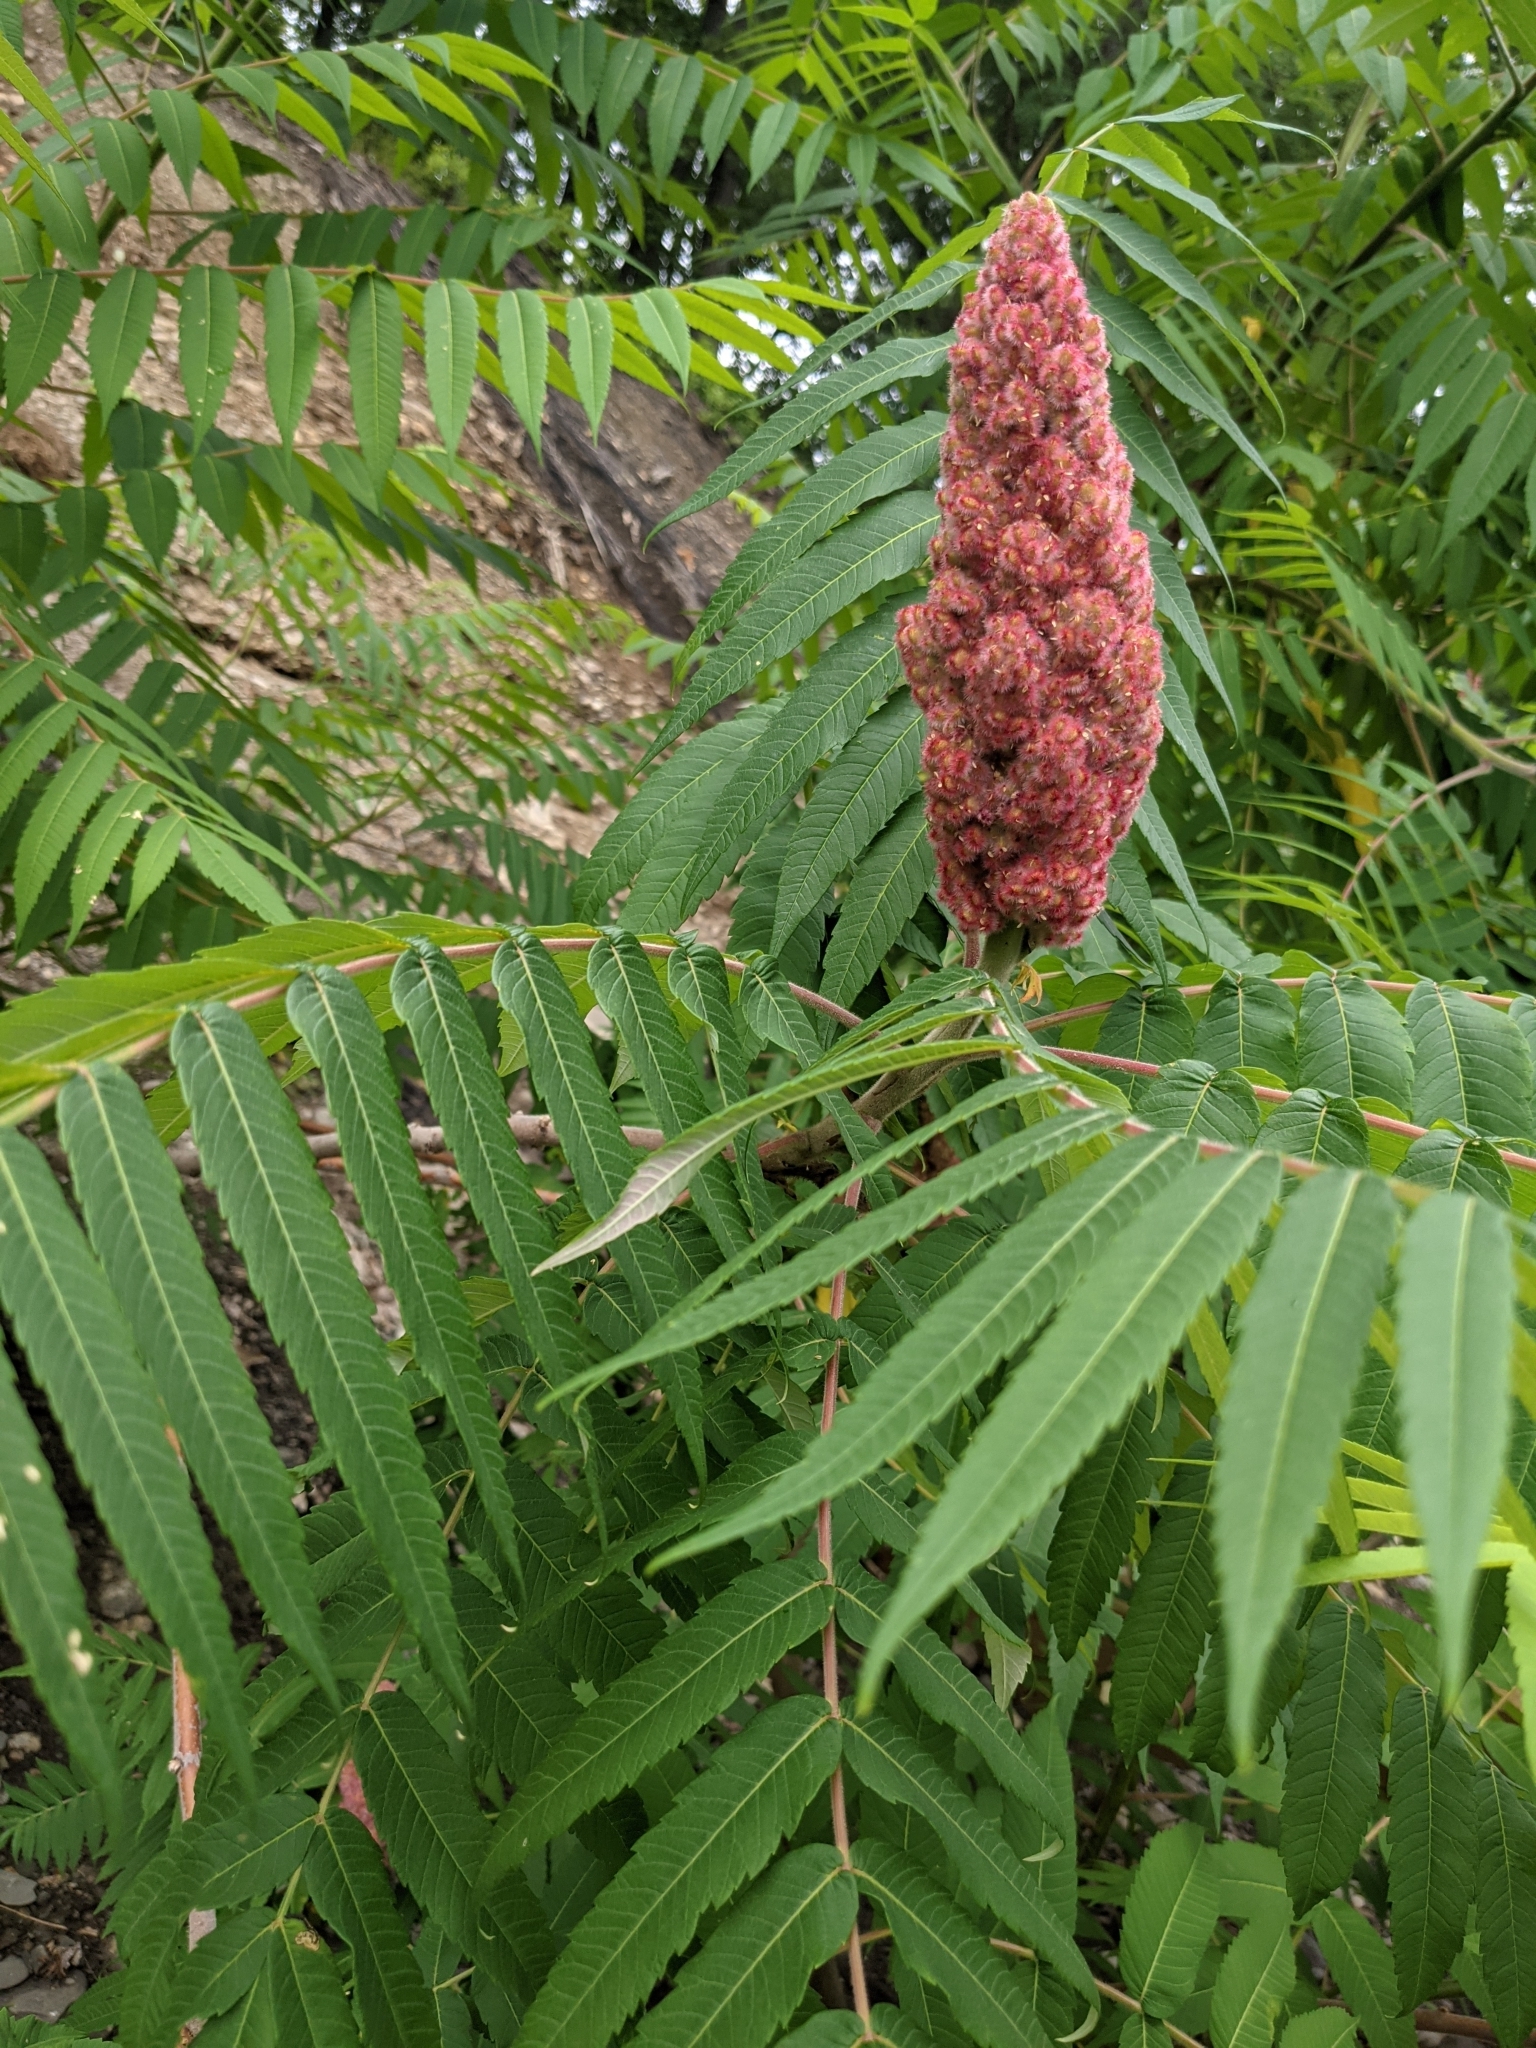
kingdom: Plantae
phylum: Tracheophyta
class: Magnoliopsida
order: Sapindales
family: Anacardiaceae
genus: Rhus
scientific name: Rhus typhina
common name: Staghorn sumac
